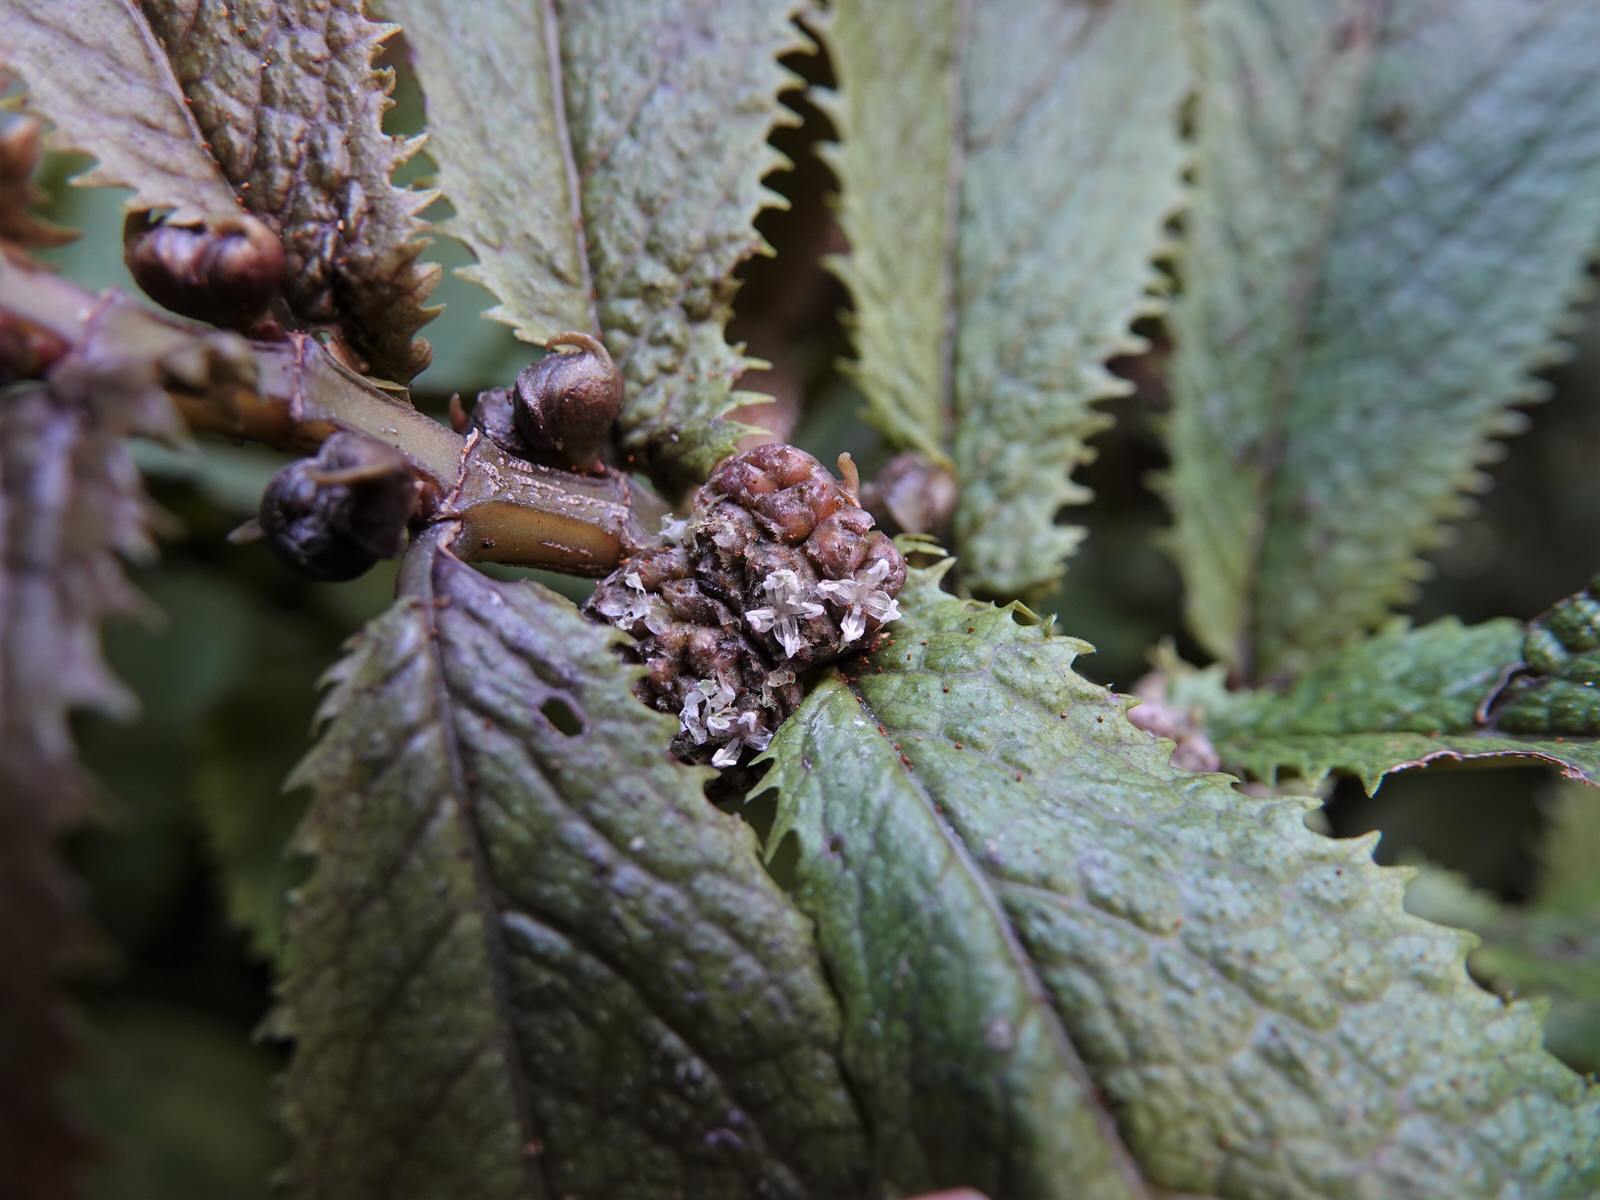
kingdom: Plantae
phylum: Tracheophyta
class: Magnoliopsida
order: Rosales
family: Urticaceae
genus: Elatostema
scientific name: Elatostema rugosum
